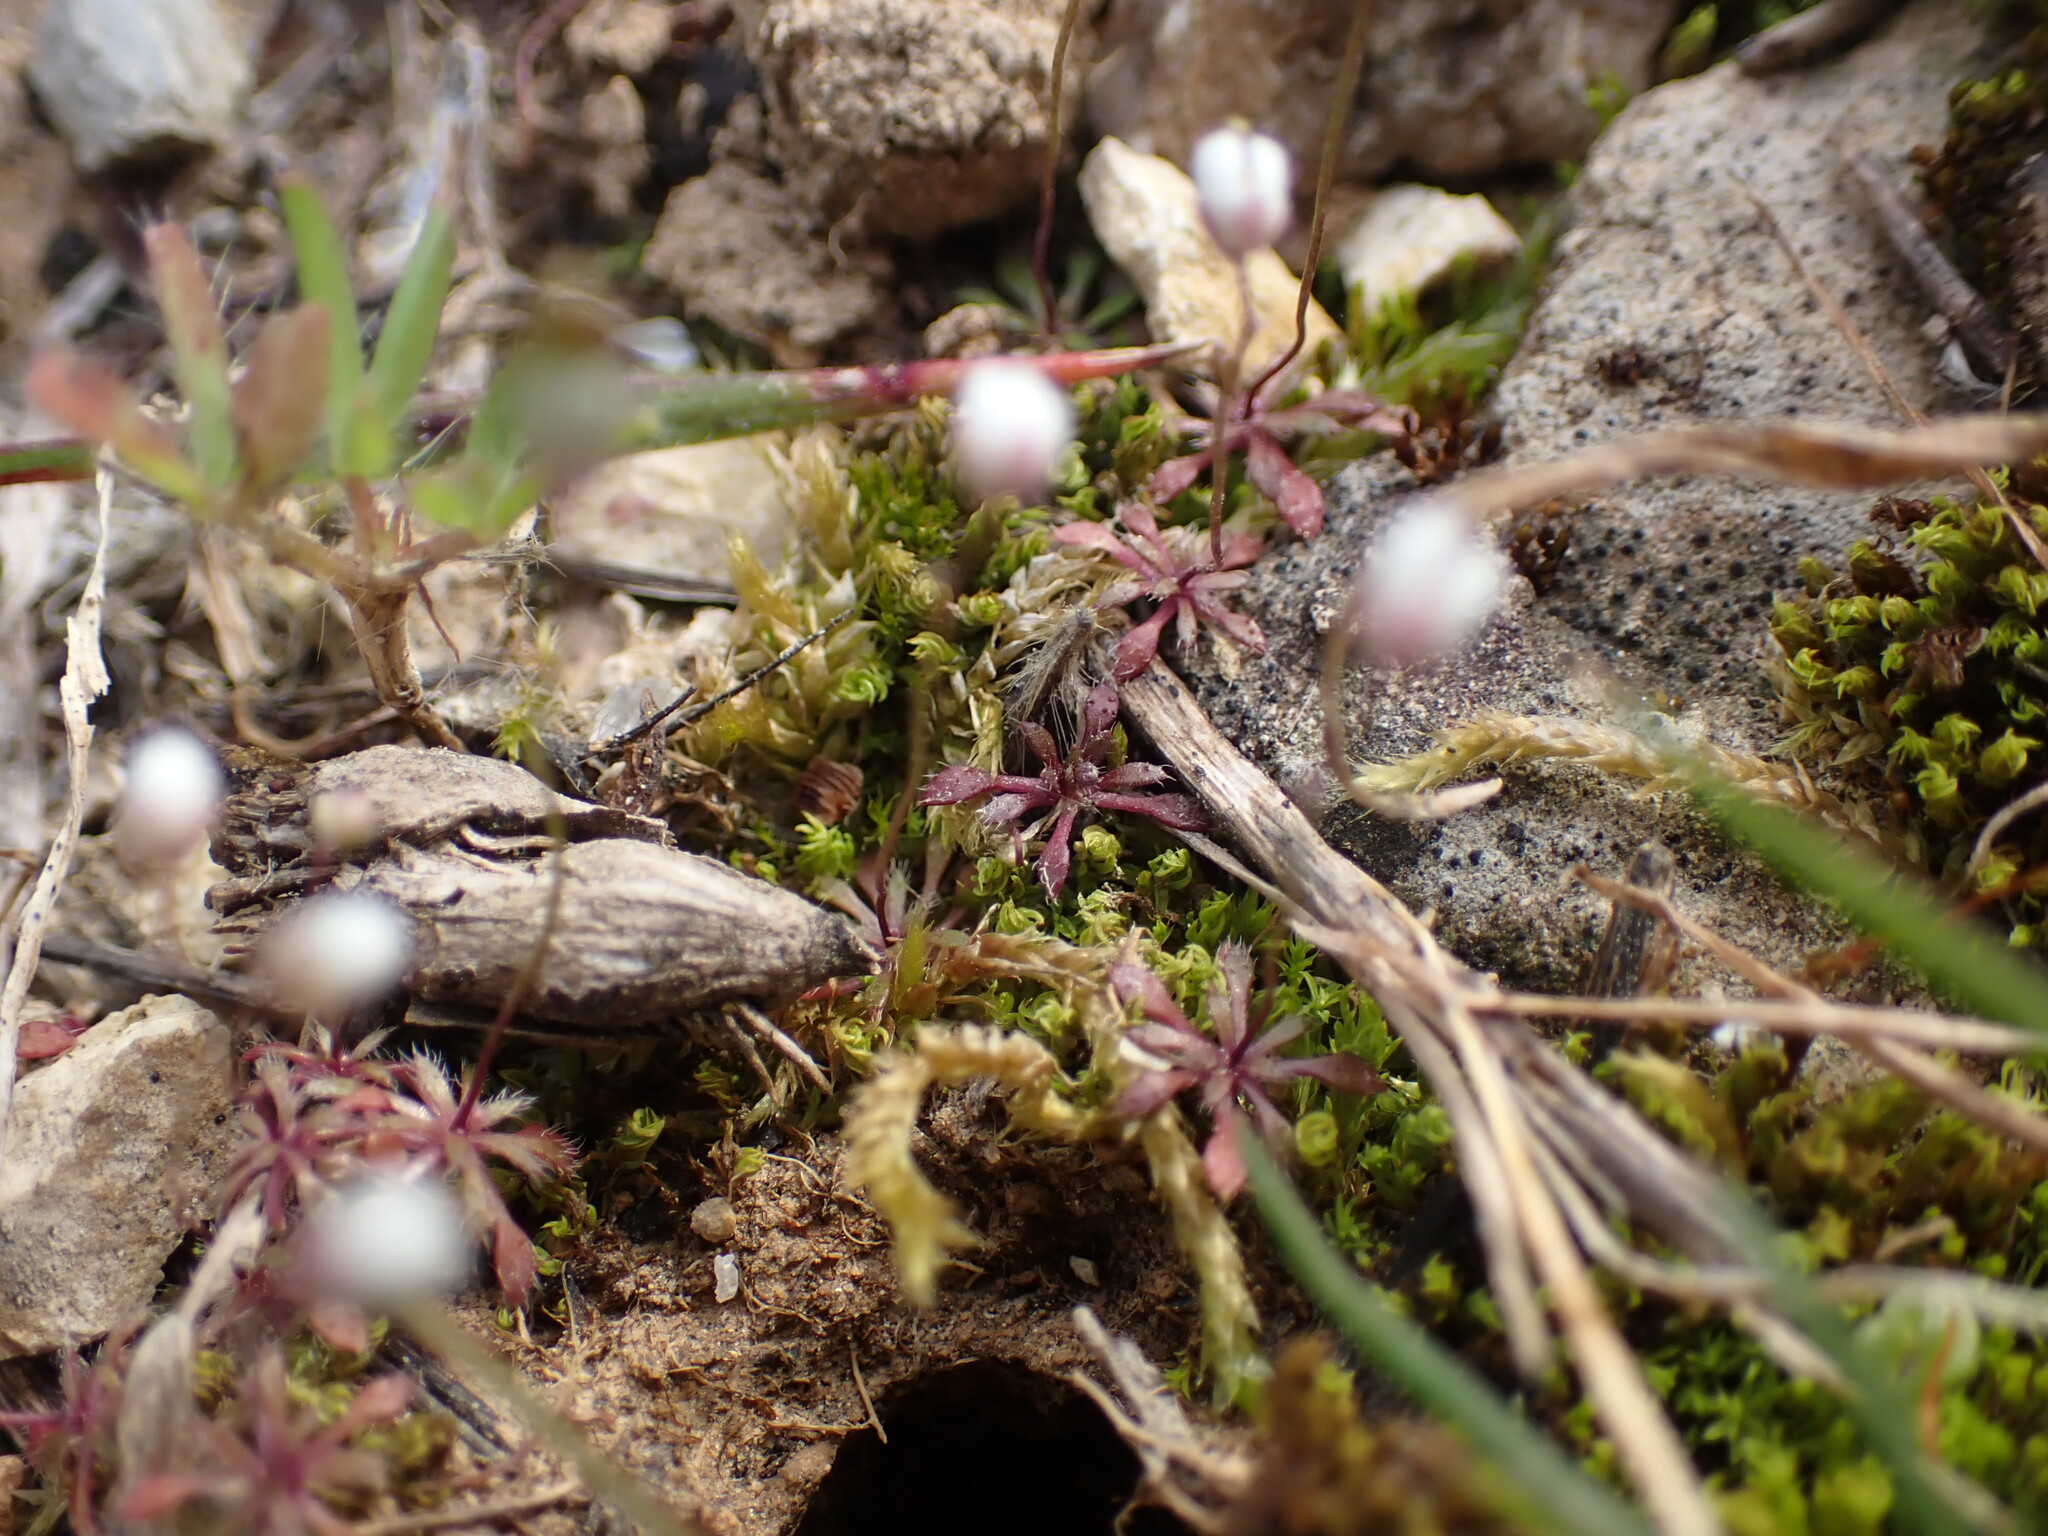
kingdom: Plantae
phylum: Tracheophyta
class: Magnoliopsida
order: Brassicales
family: Brassicaceae
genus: Draba
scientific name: Draba verna
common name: Spring draba
